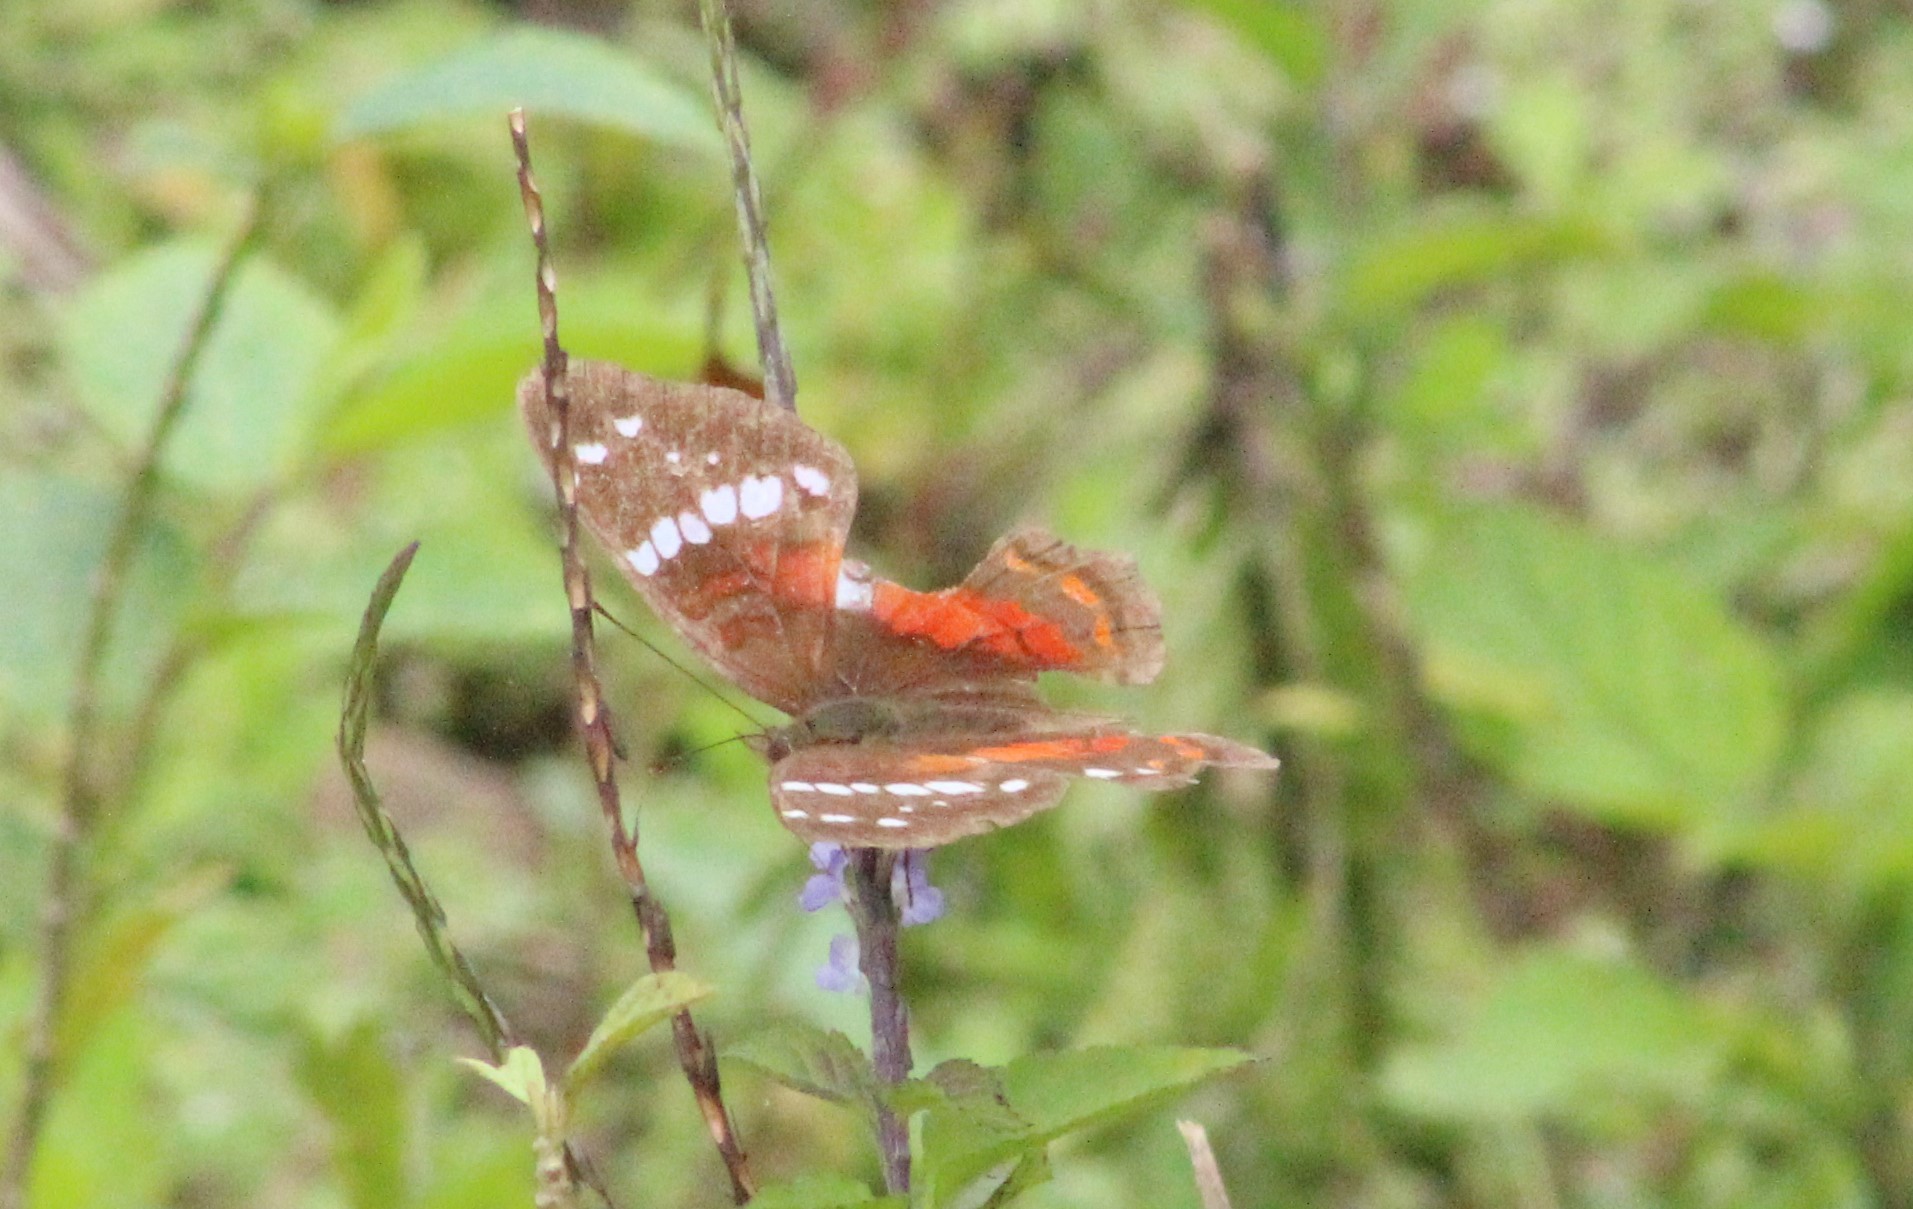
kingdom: Animalia
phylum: Arthropoda
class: Insecta
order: Lepidoptera
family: Nymphalidae
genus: Anartia
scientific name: Anartia amathea
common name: Red peacock
